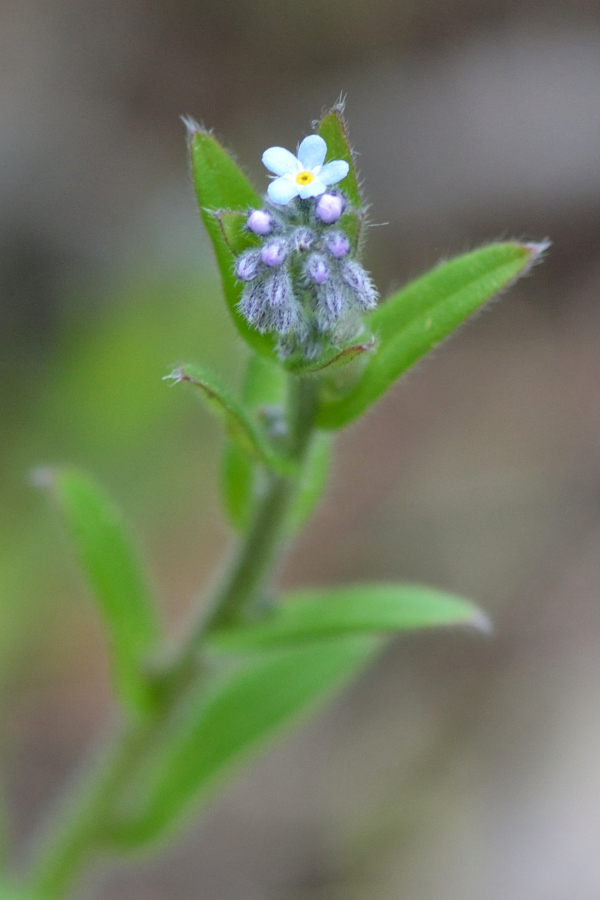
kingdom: Plantae
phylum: Tracheophyta
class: Magnoliopsida
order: Boraginales
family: Boraginaceae
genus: Myosotis
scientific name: Myosotis arvensis
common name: Field forget-me-not
